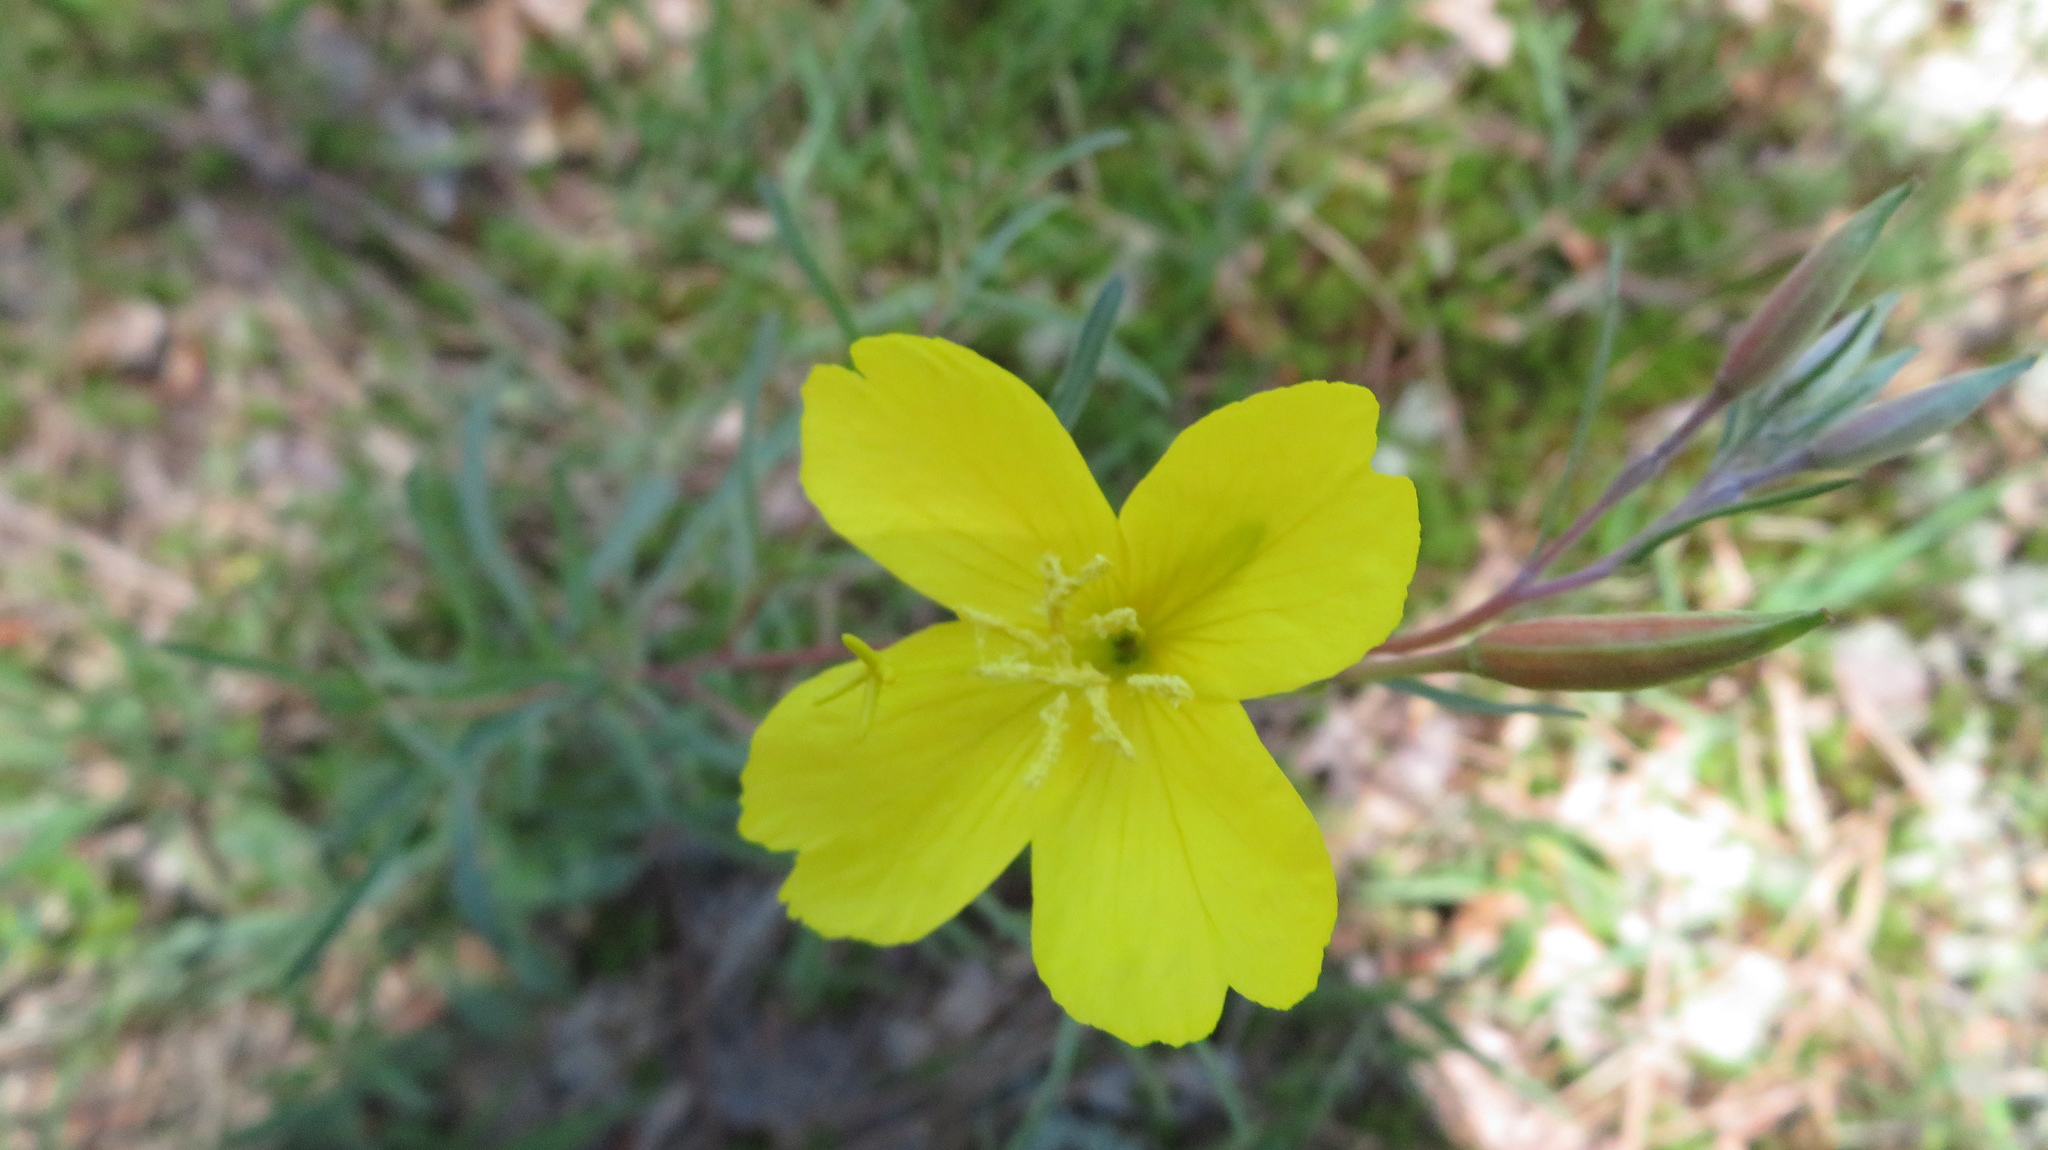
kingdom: Plantae
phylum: Tracheophyta
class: Magnoliopsida
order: Myrtales
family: Onagraceae
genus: Oenothera
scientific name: Oenothera fruticosa
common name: Southern sundrops
